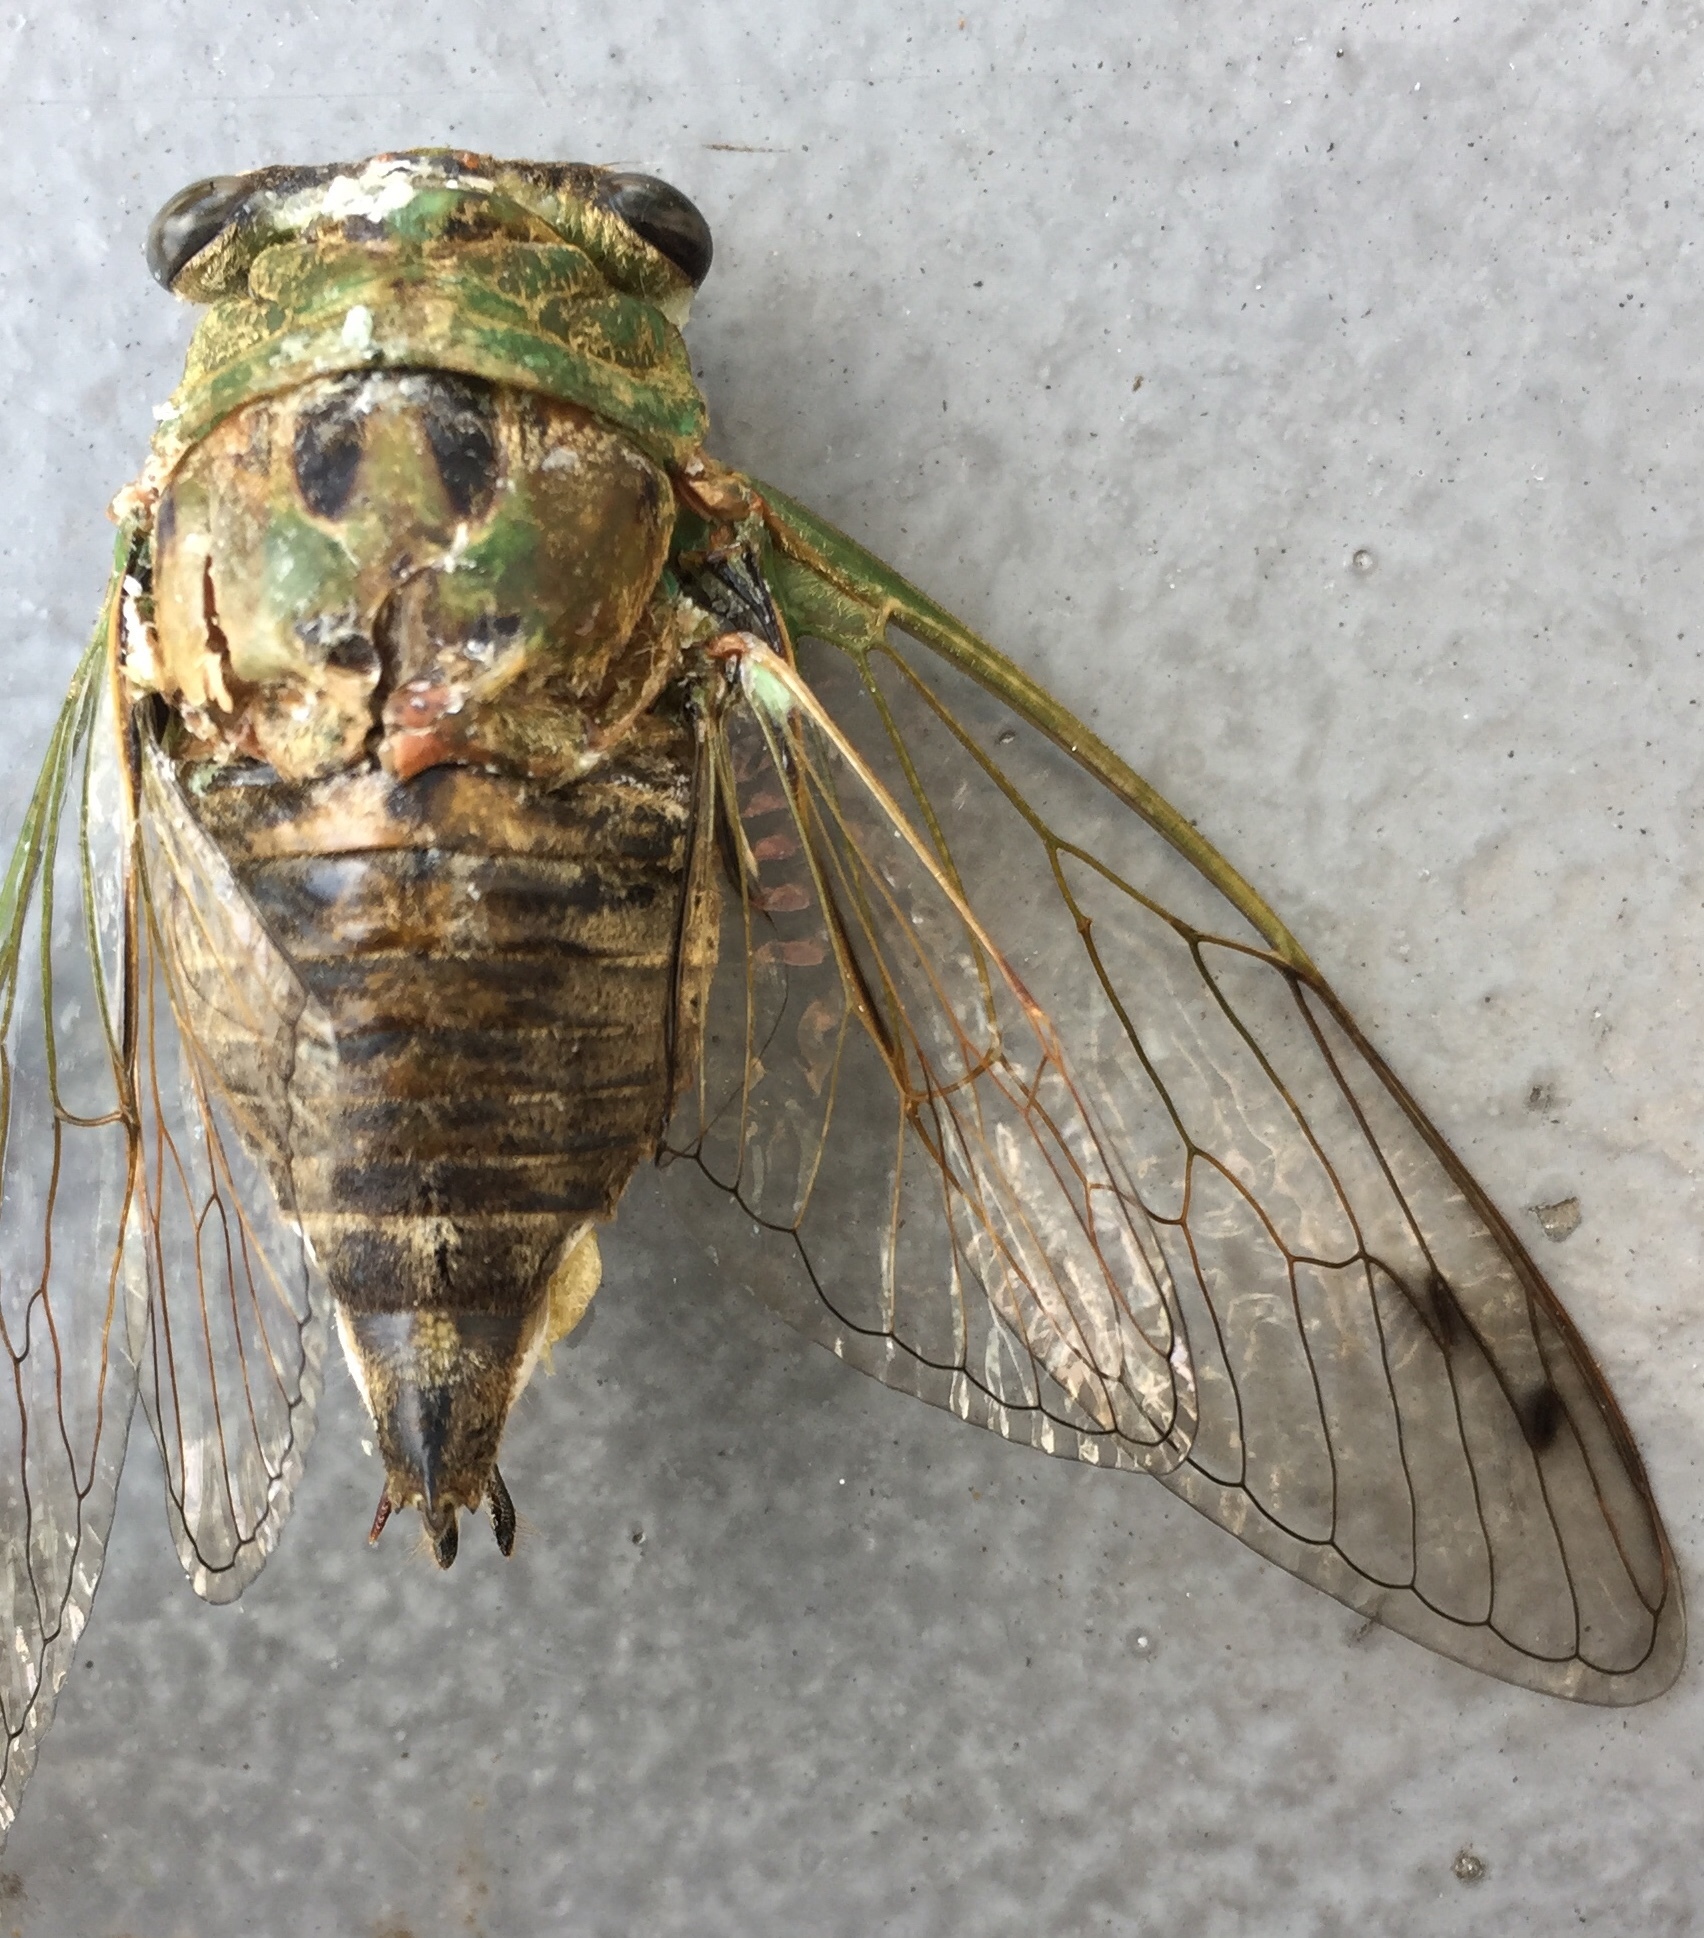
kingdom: Animalia
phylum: Arthropoda
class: Insecta
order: Hemiptera
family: Cicadidae
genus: Neotibicen
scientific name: Neotibicen winnemanna
